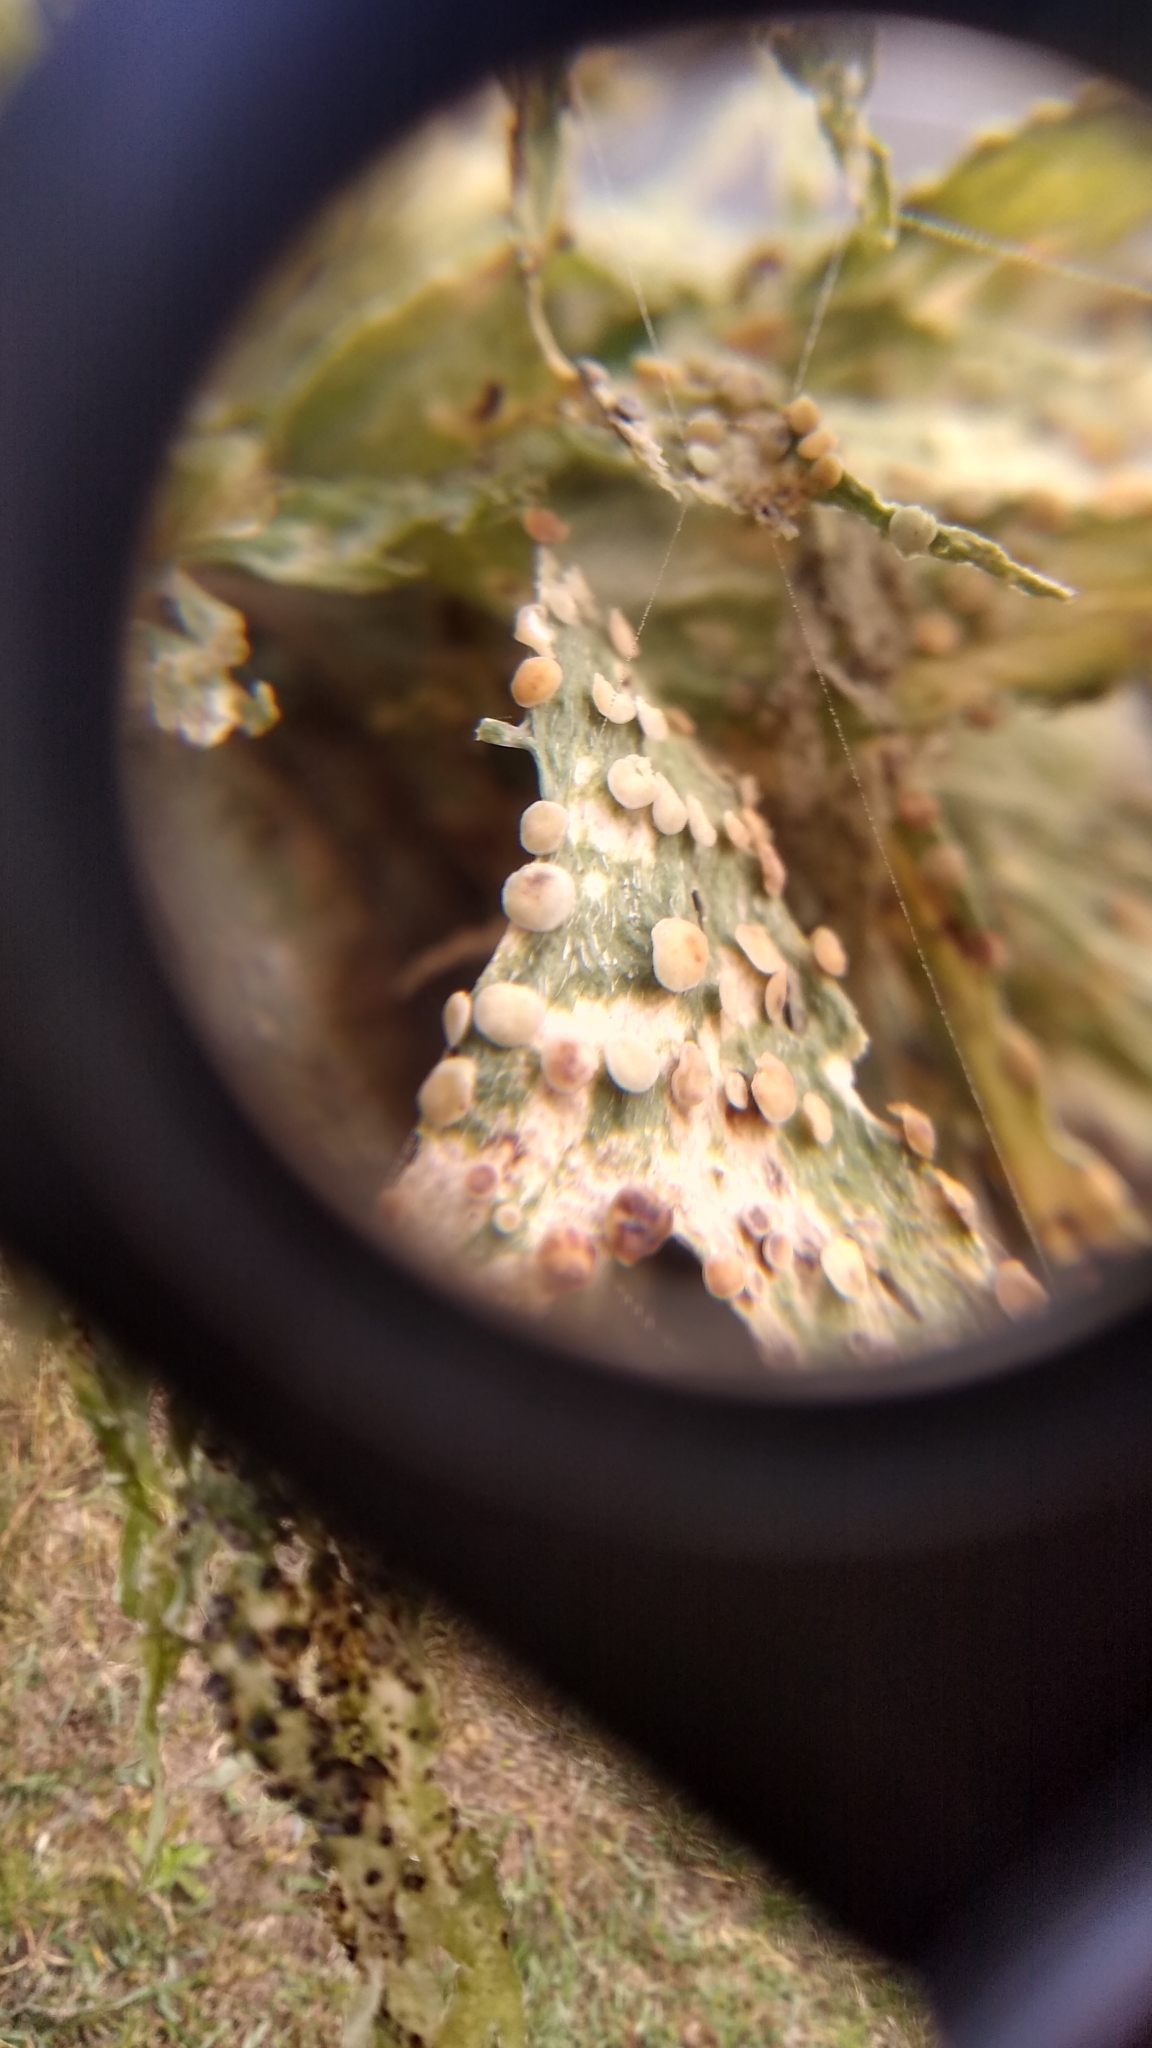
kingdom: Fungi
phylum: Ascomycota
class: Lecanoromycetes
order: Lecanorales
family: Ramalinaceae
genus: Ramalina
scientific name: Ramalina celastri
